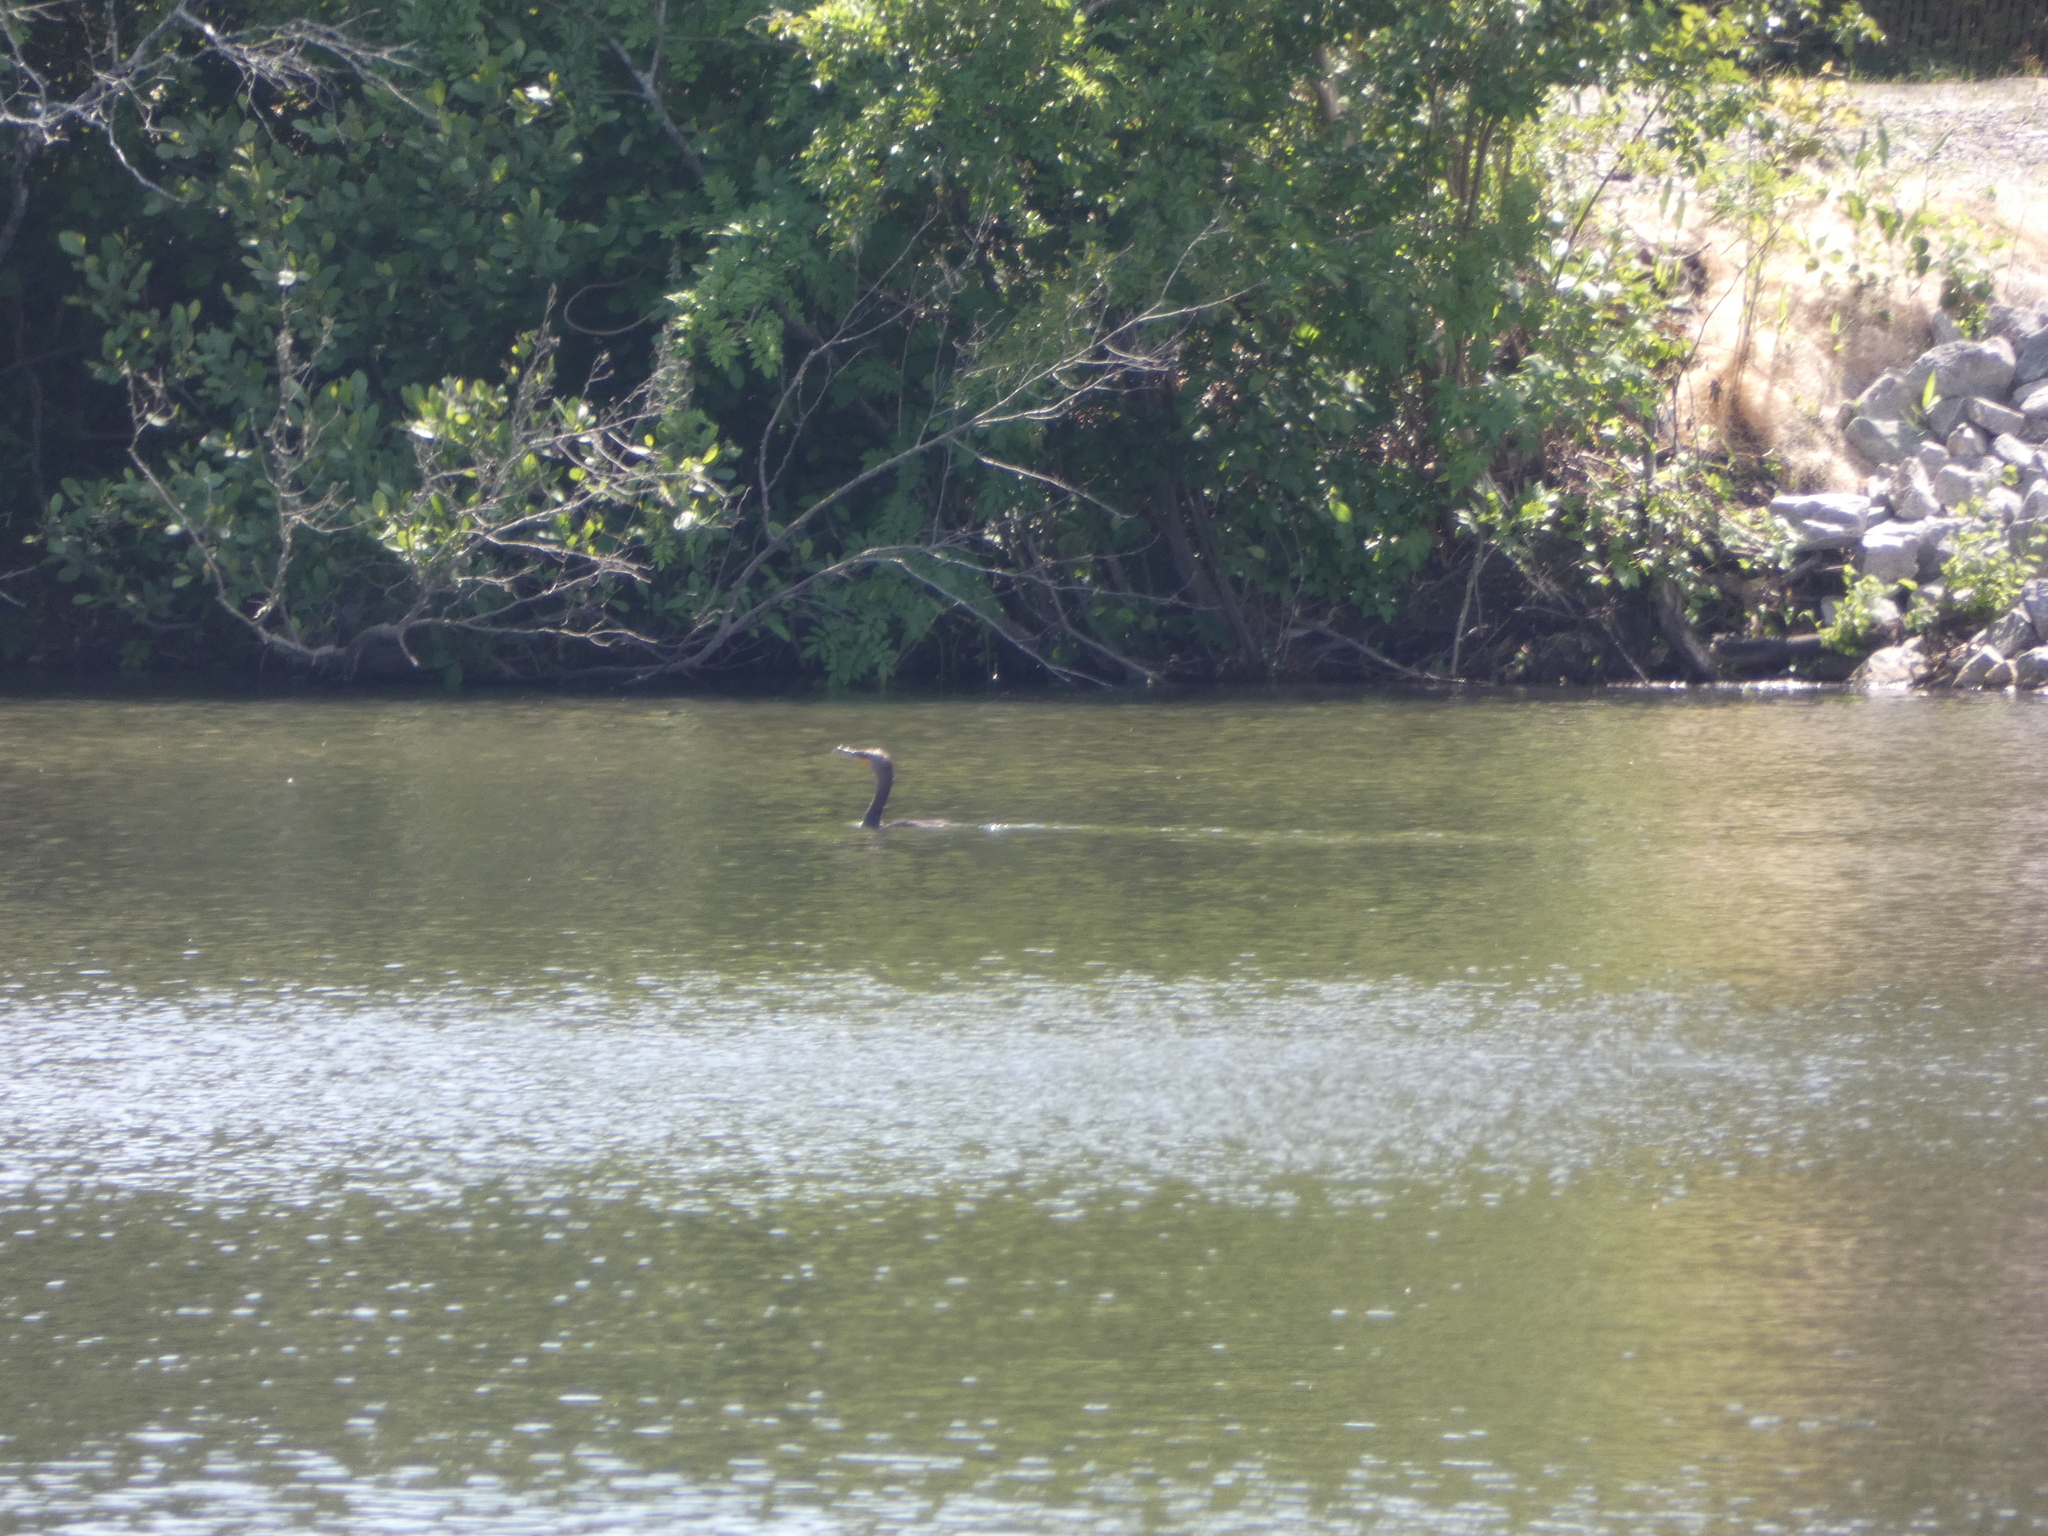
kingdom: Animalia
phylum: Chordata
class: Aves
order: Suliformes
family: Phalacrocoracidae
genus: Phalacrocorax
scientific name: Phalacrocorax auritus
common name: Double-crested cormorant
